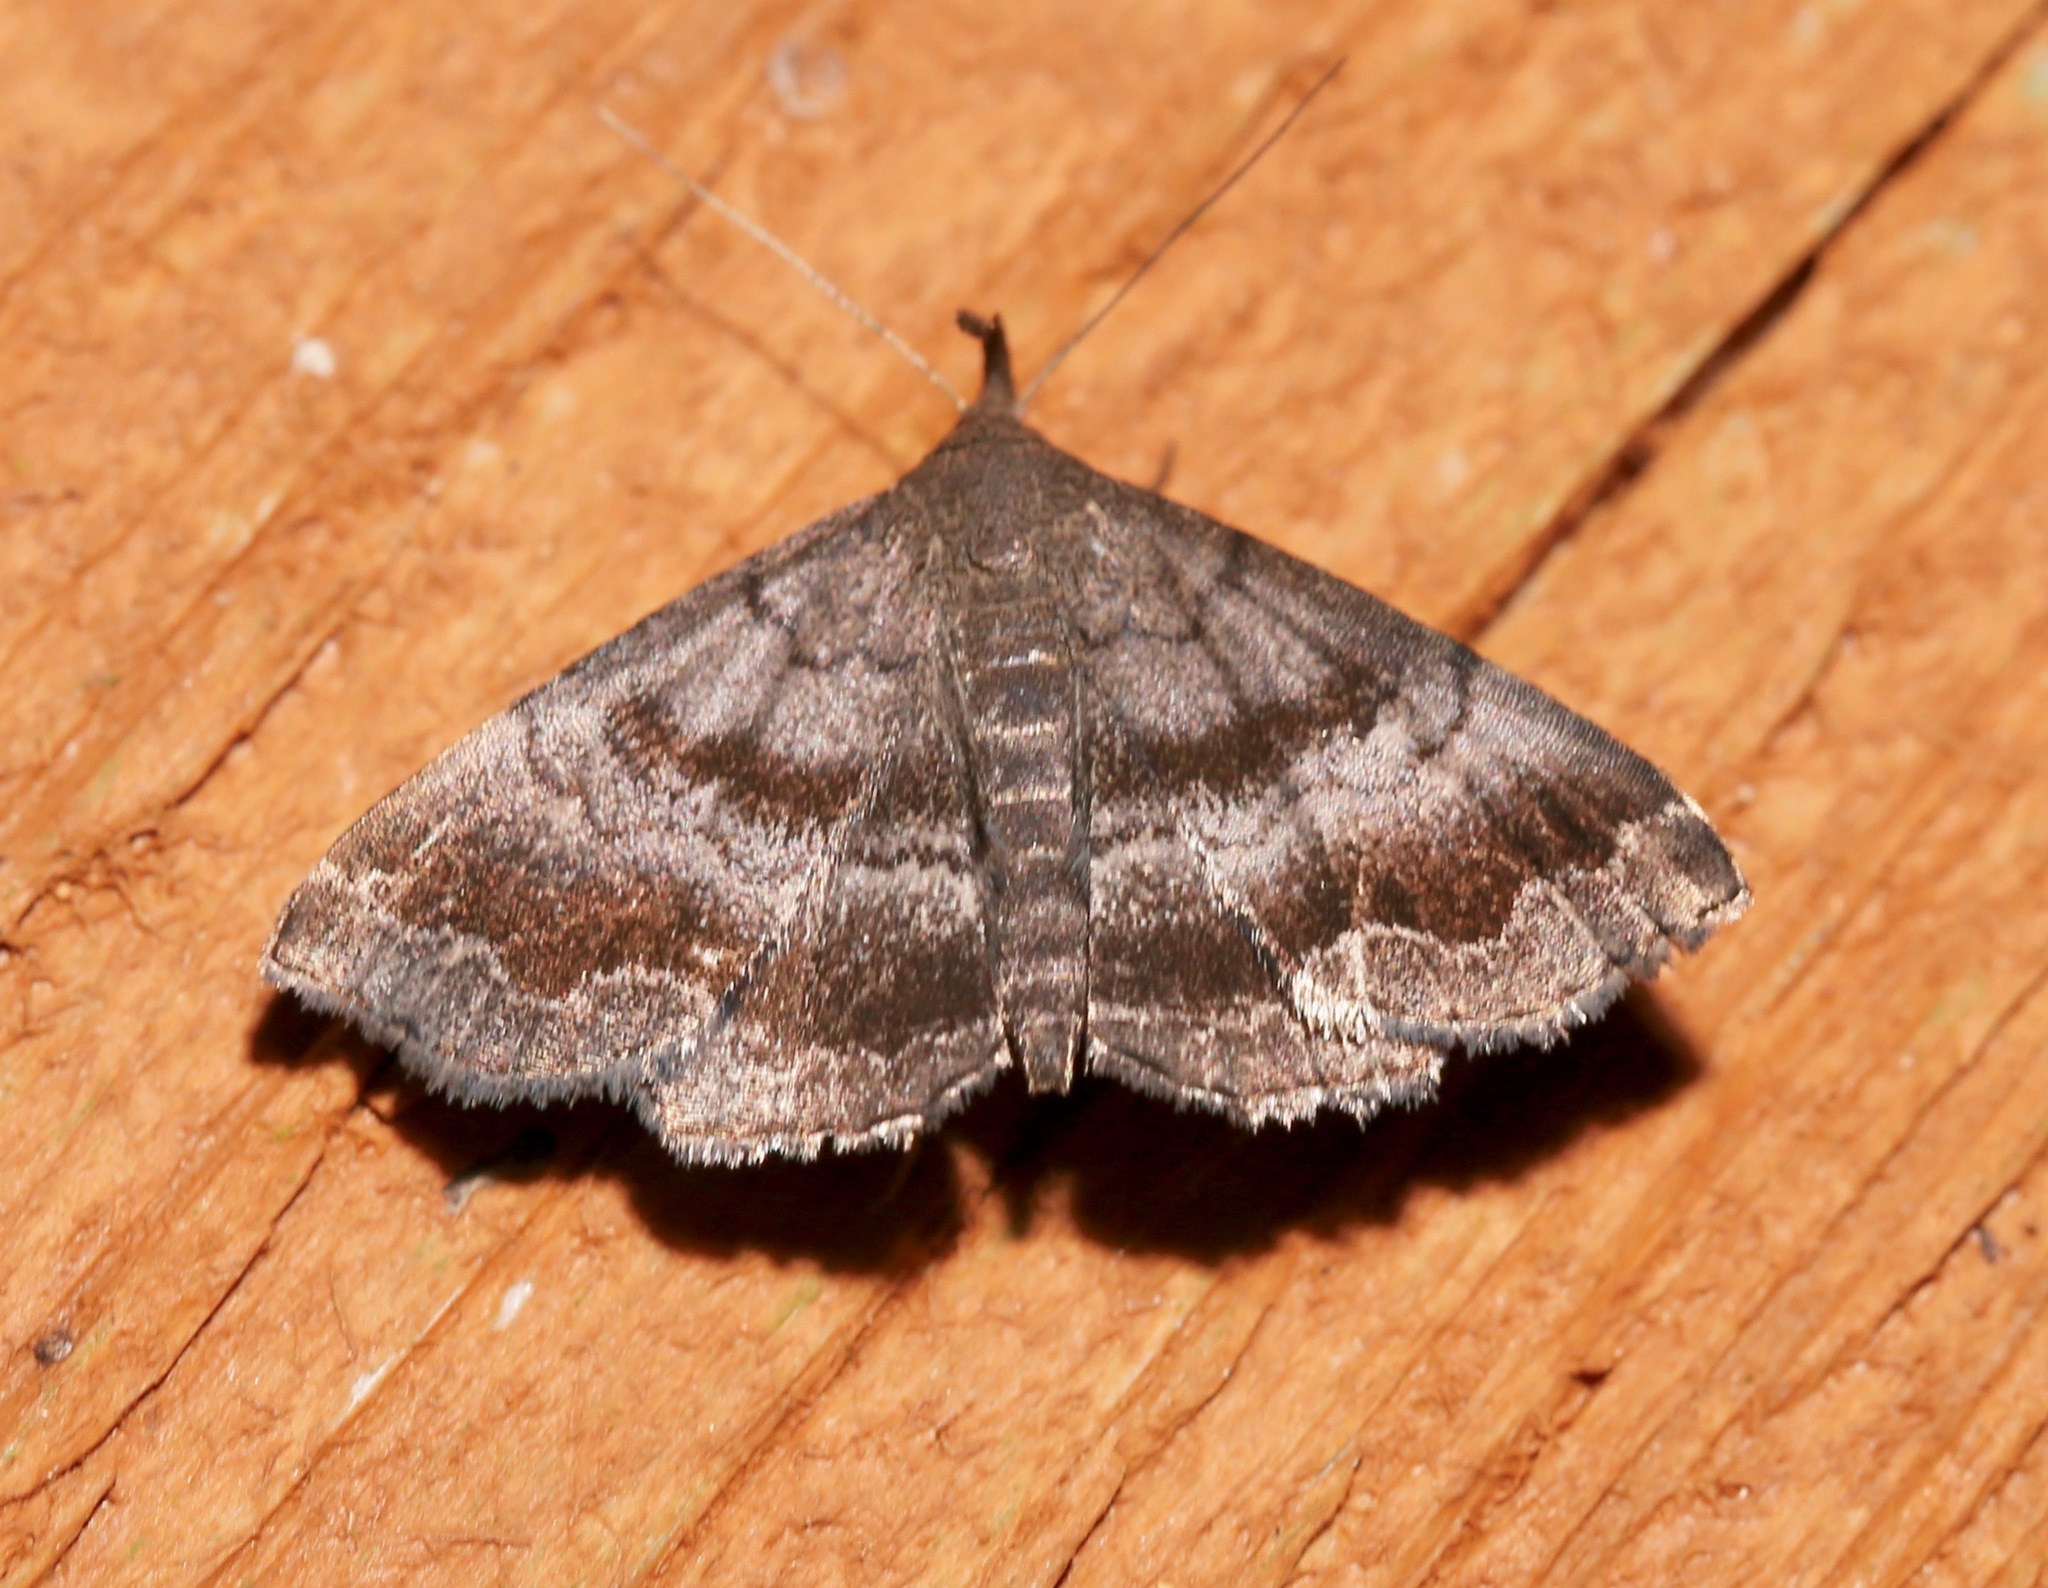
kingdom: Animalia
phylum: Arthropoda
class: Insecta
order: Lepidoptera
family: Erebidae
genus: Phalaenostola
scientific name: Phalaenostola larentioides
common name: Black-banded owlet
